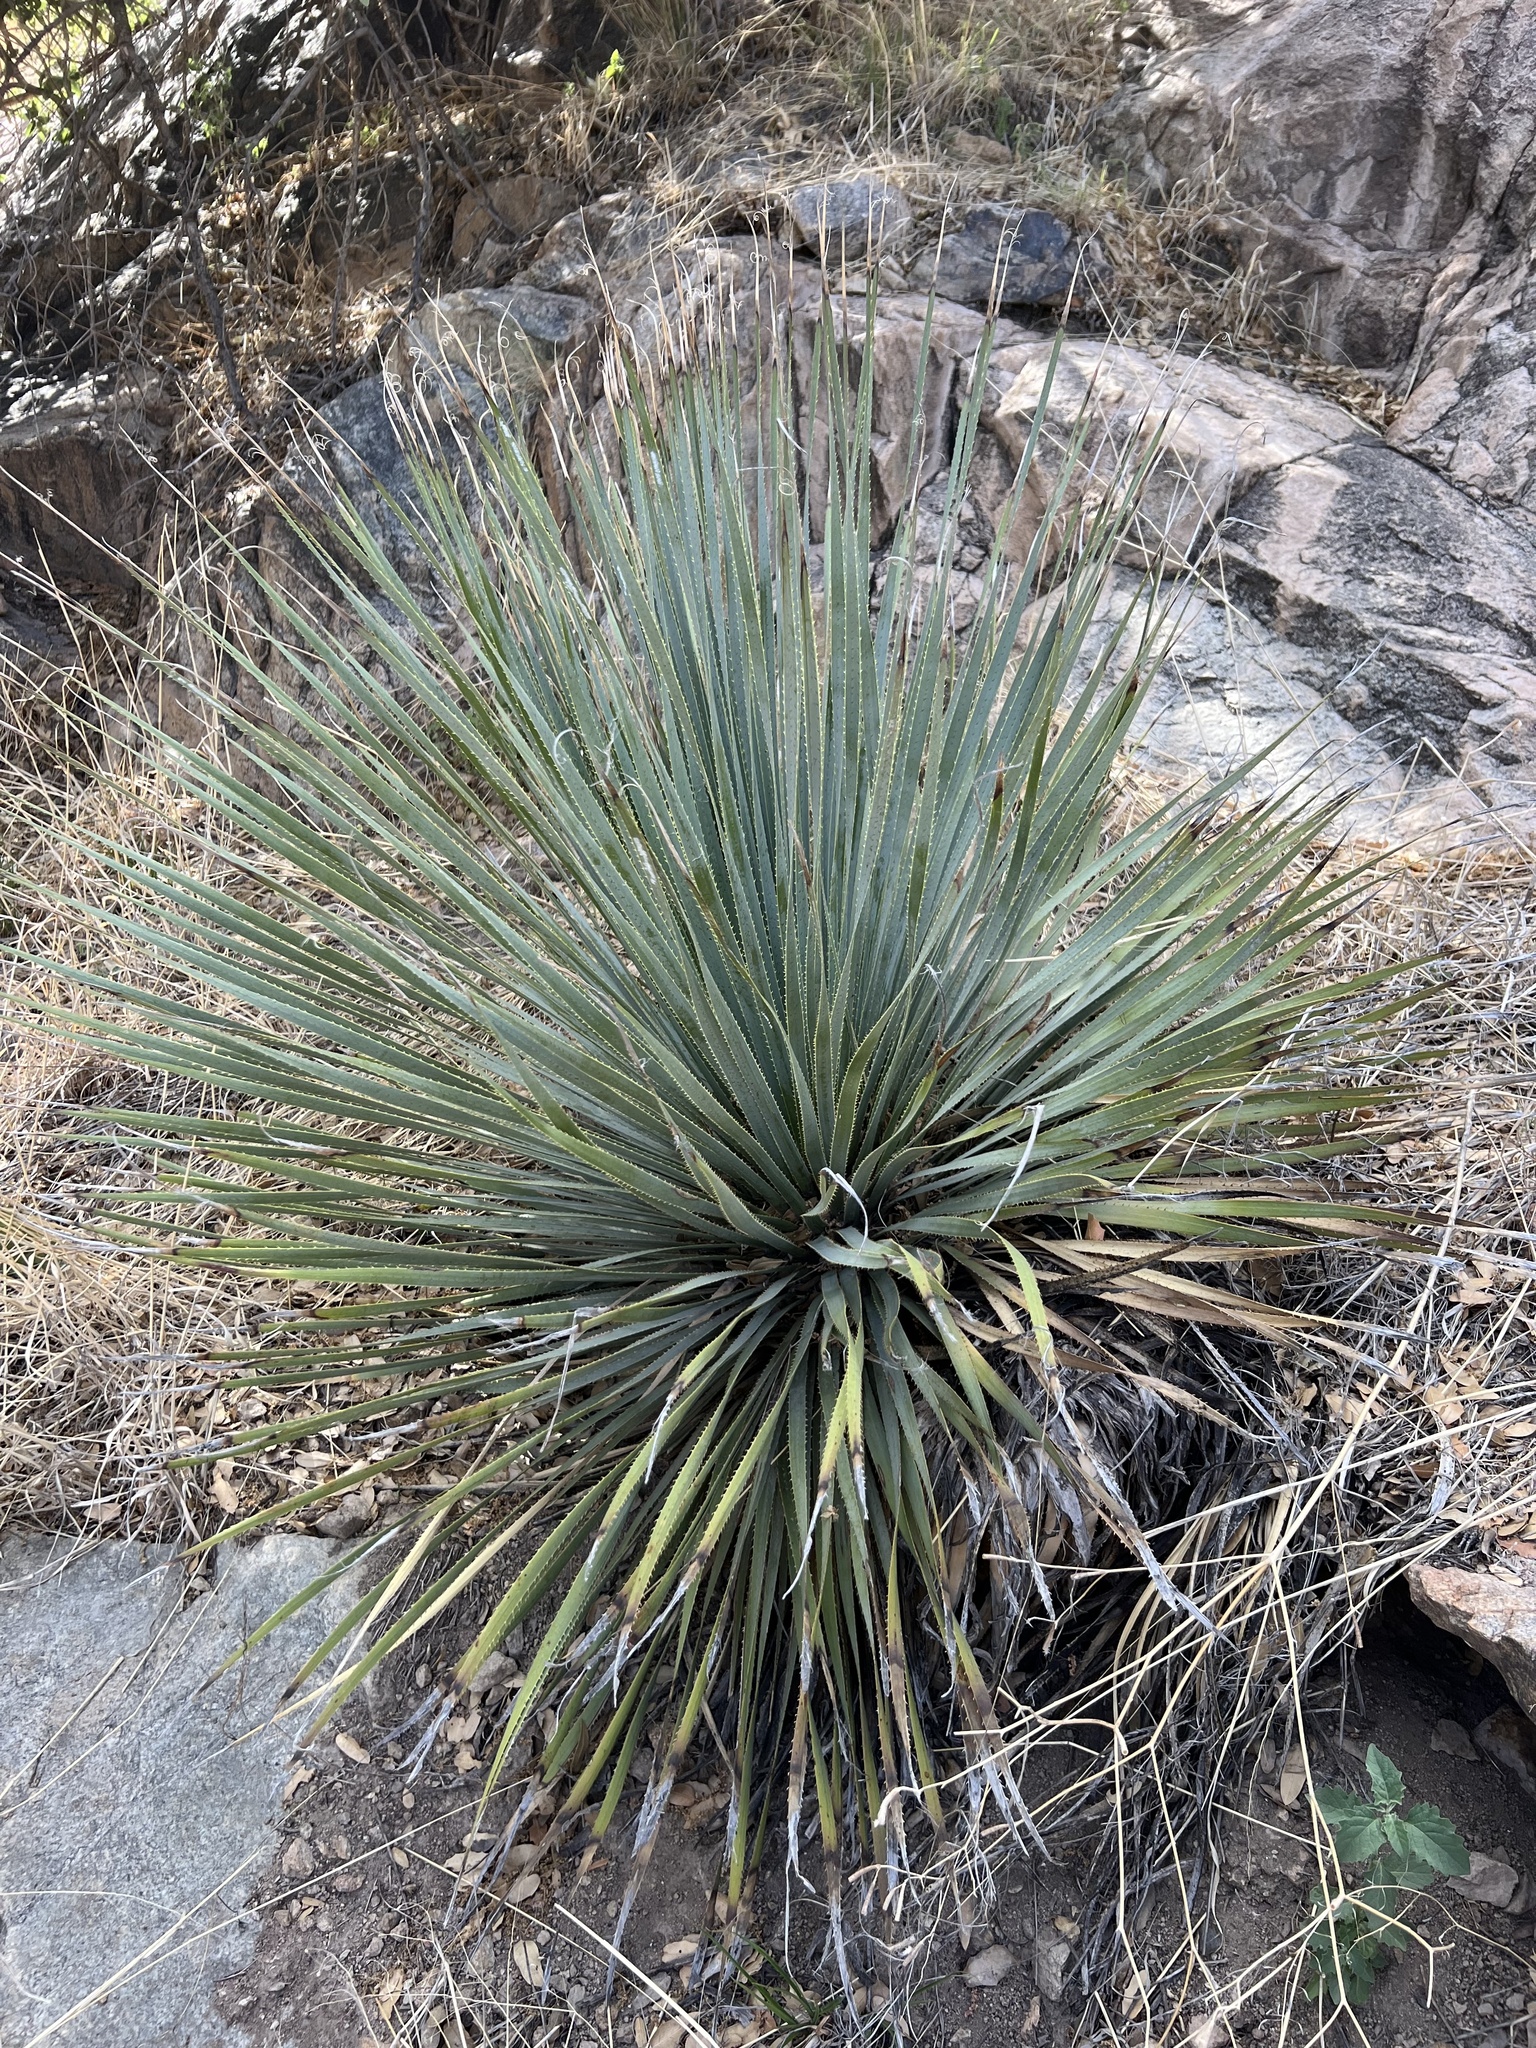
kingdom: Plantae
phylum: Tracheophyta
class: Liliopsida
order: Asparagales
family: Asparagaceae
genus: Dasylirion
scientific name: Dasylirion wheeleri
